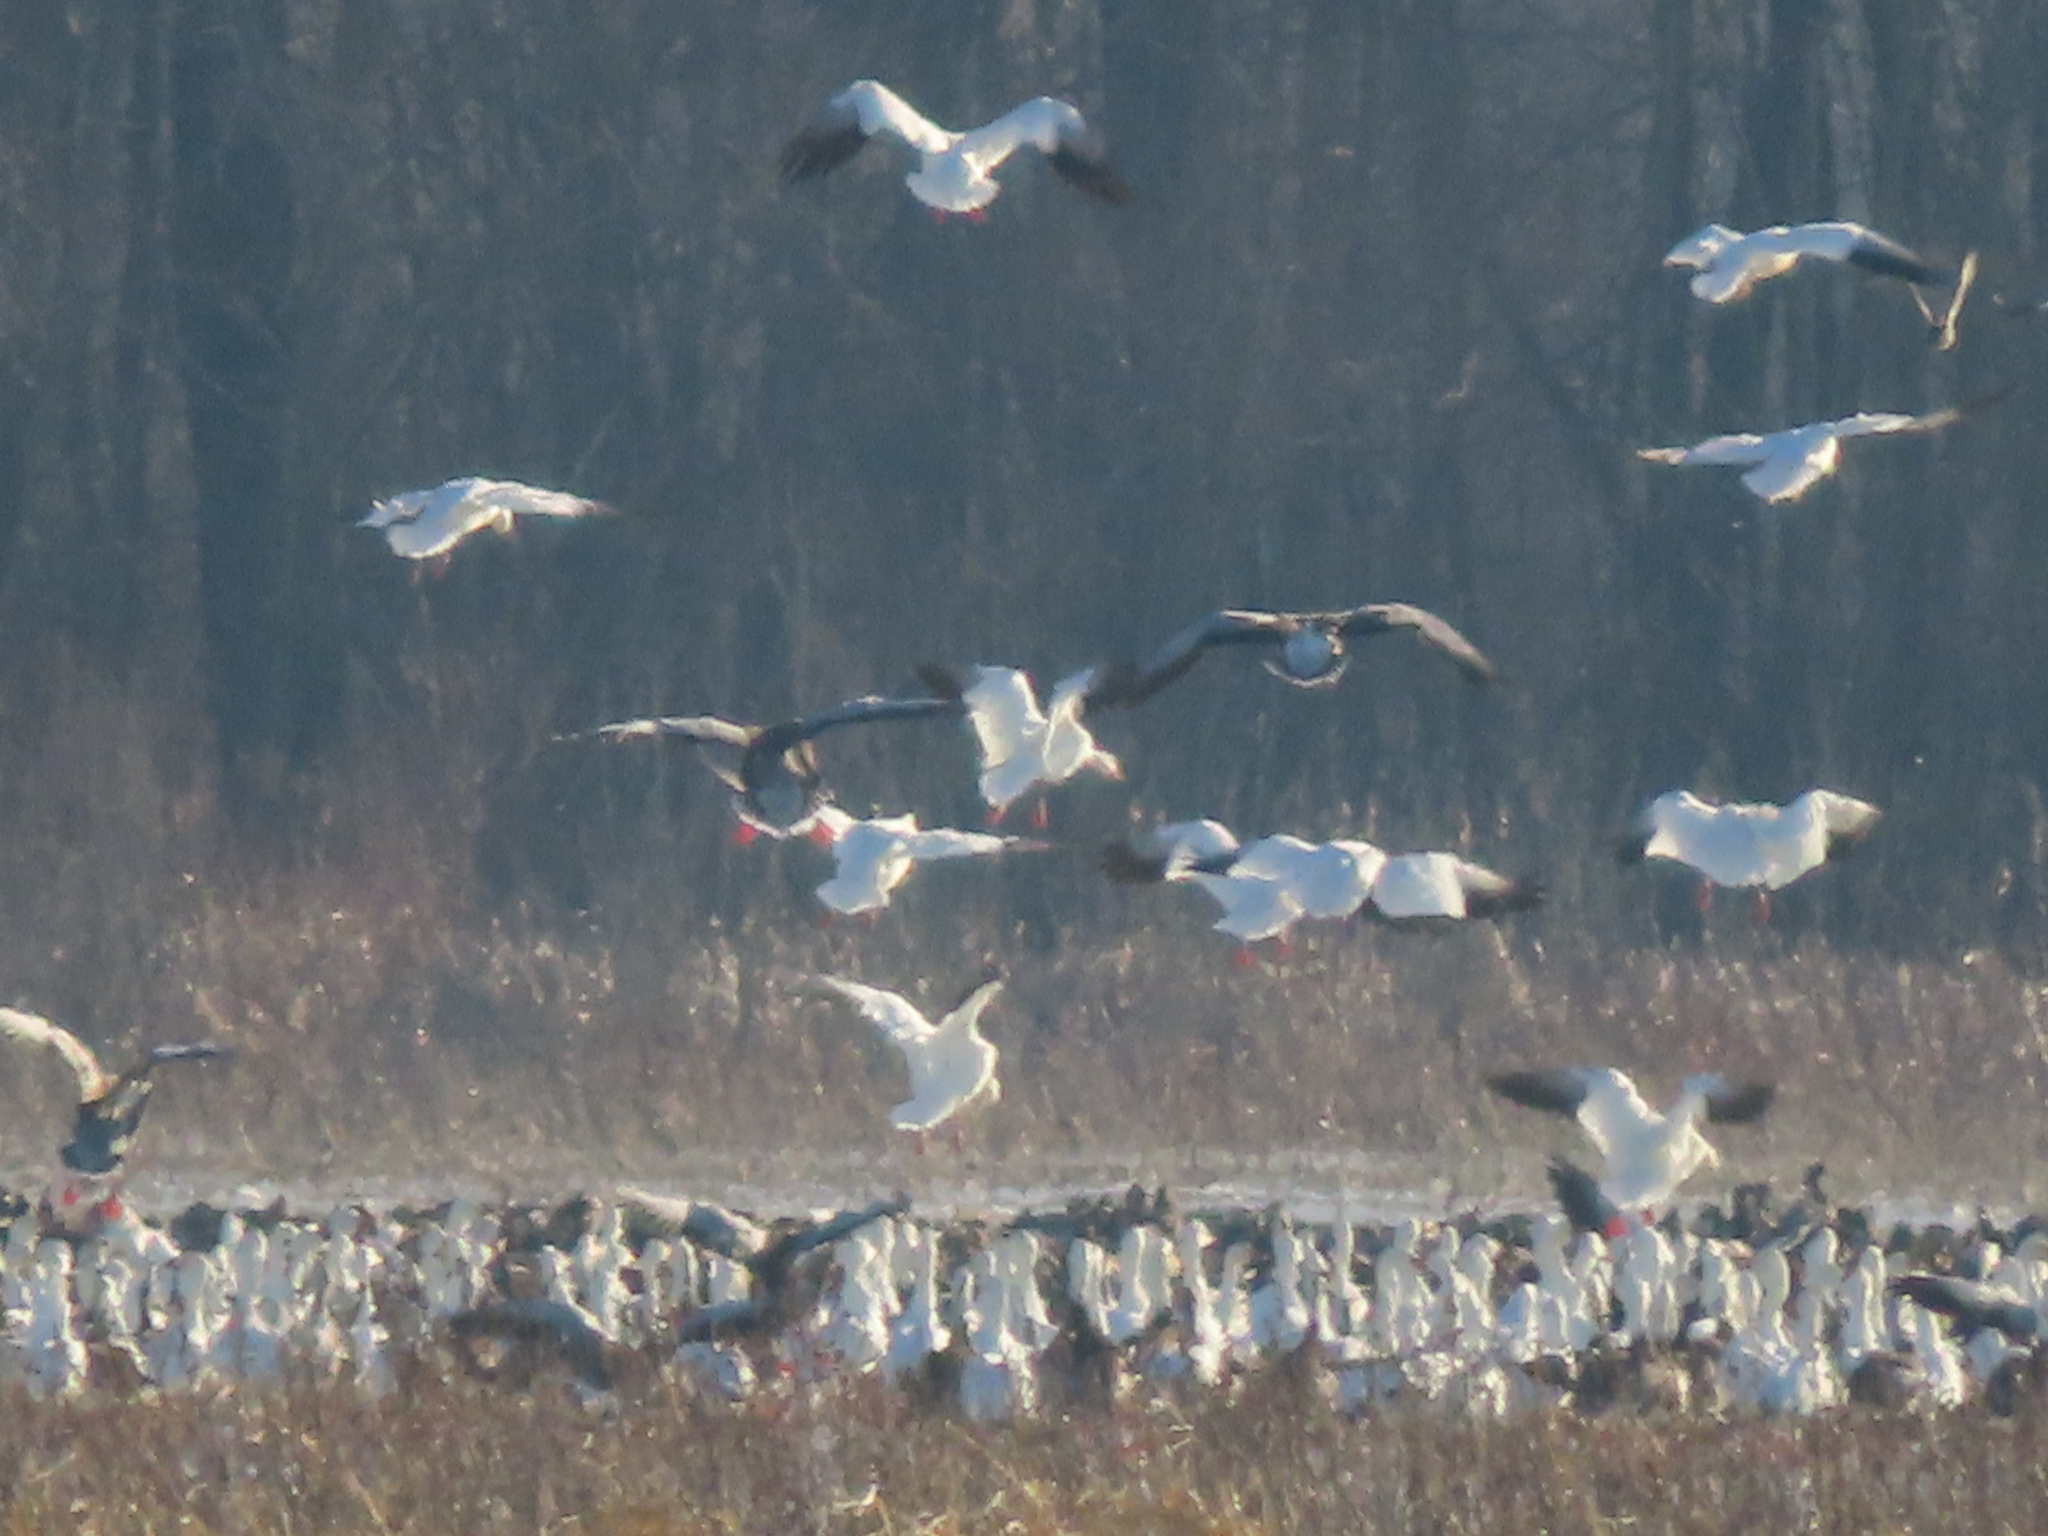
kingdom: Animalia
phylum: Chordata
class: Aves
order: Anseriformes
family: Anatidae
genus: Anser
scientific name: Anser caerulescens
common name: Snow goose
